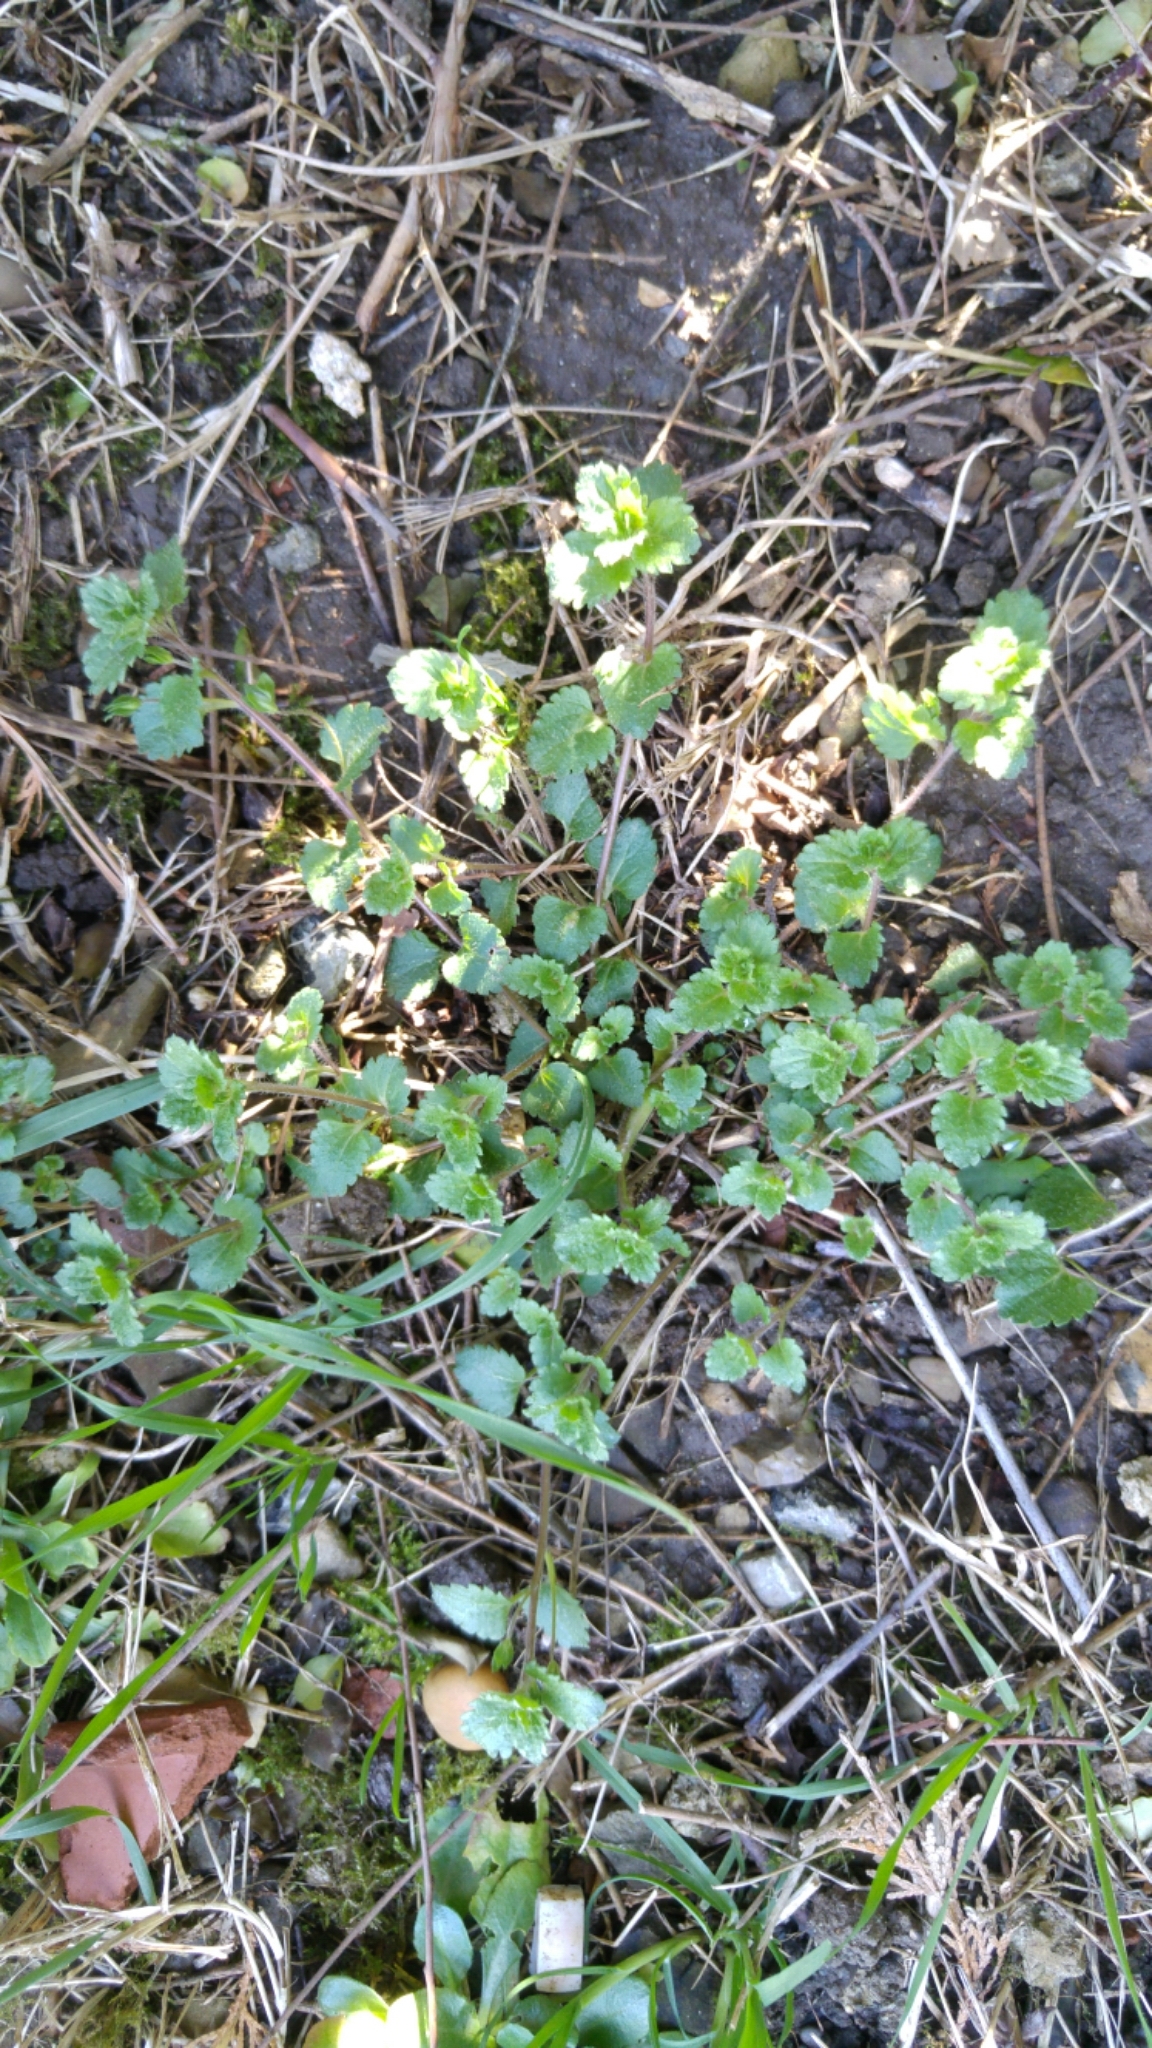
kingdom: Plantae
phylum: Tracheophyta
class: Magnoliopsida
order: Lamiales
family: Plantaginaceae
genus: Veronica
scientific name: Veronica persica
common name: Common field-speedwell
